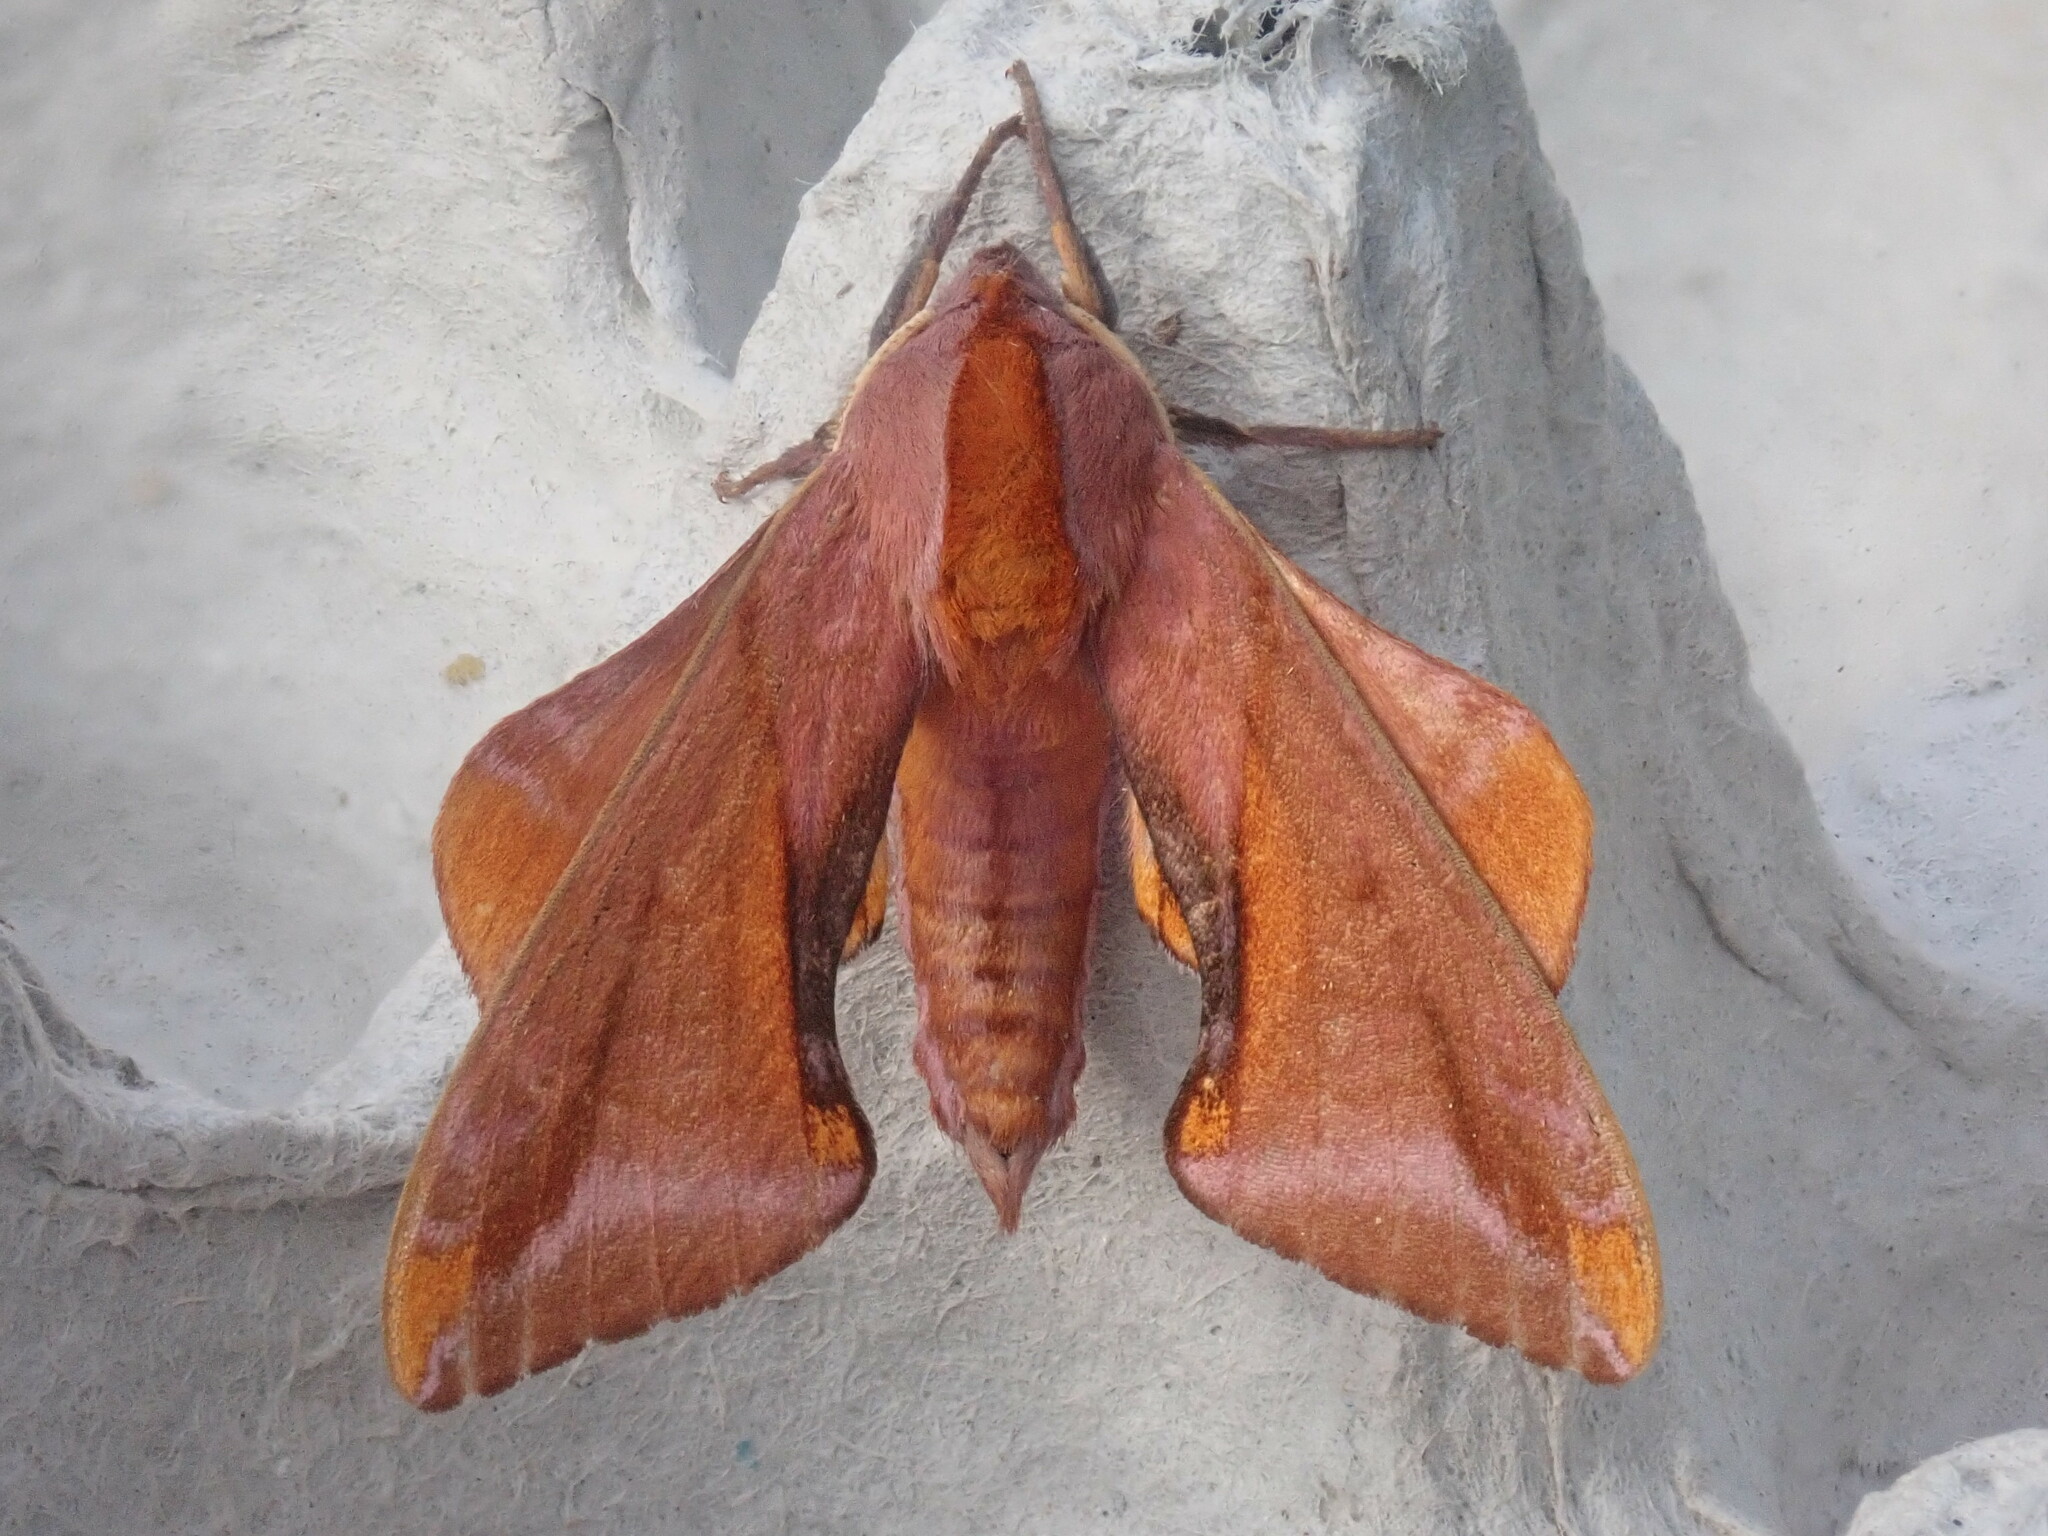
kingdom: Animalia
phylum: Arthropoda
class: Insecta
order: Lepidoptera
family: Sphingidae
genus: Paonias
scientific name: Paonias astylus
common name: Huckleberry sphinx
